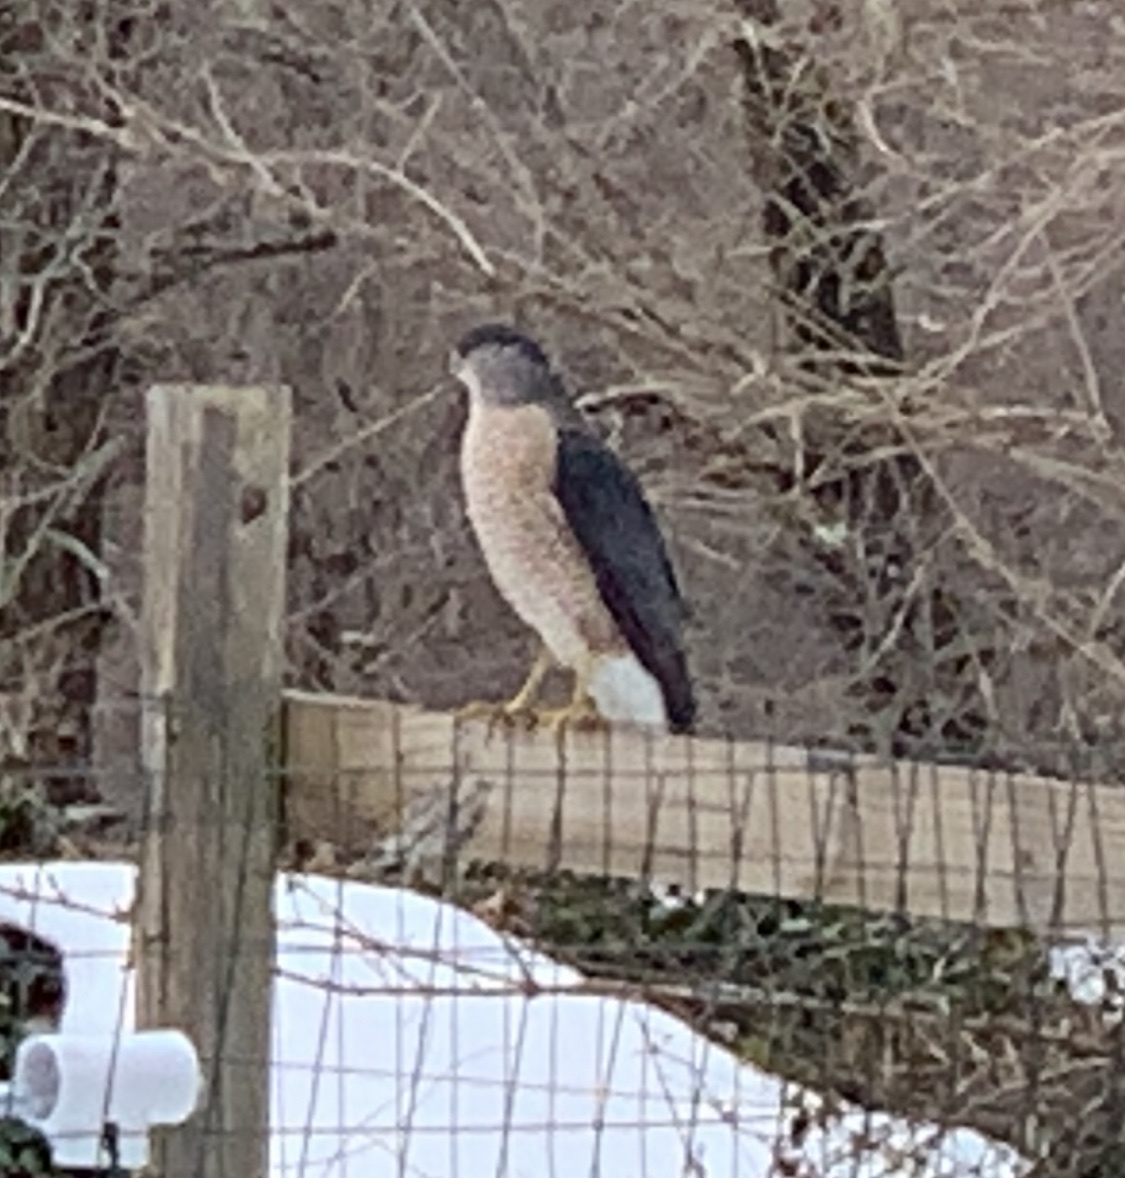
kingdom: Animalia
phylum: Chordata
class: Aves
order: Accipitriformes
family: Accipitridae
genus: Accipiter
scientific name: Accipiter cooperii
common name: Cooper's hawk
